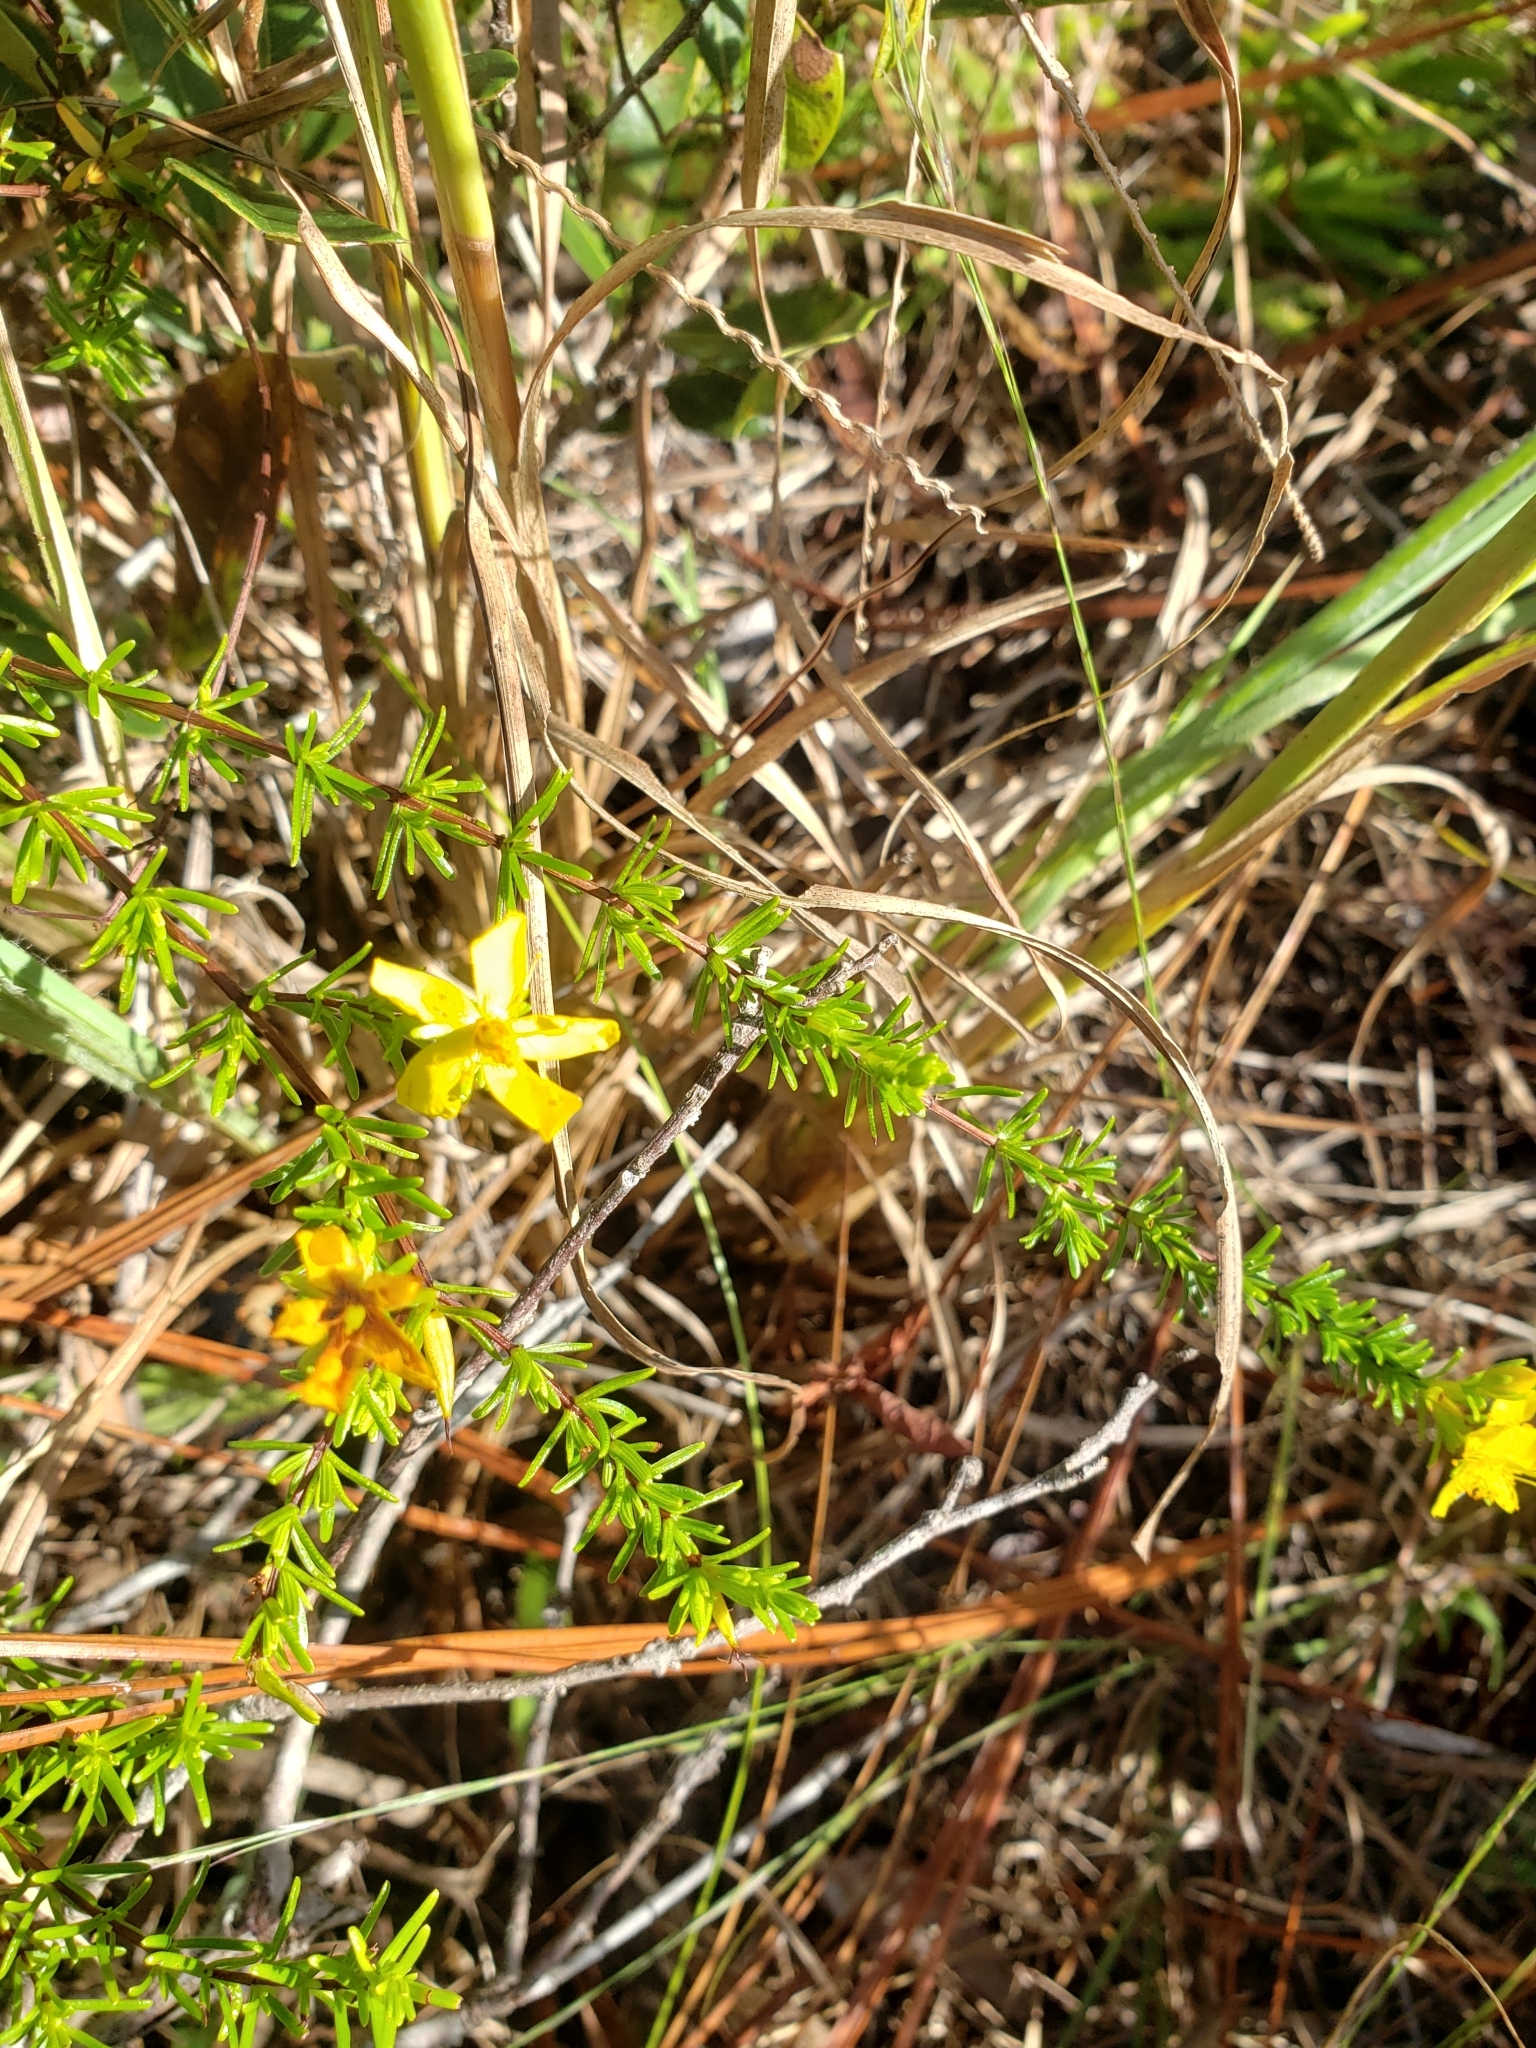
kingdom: Plantae
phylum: Tracheophyta
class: Magnoliopsida
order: Malpighiales
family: Hypericaceae
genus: Hypericum
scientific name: Hypericum tenuifolium
